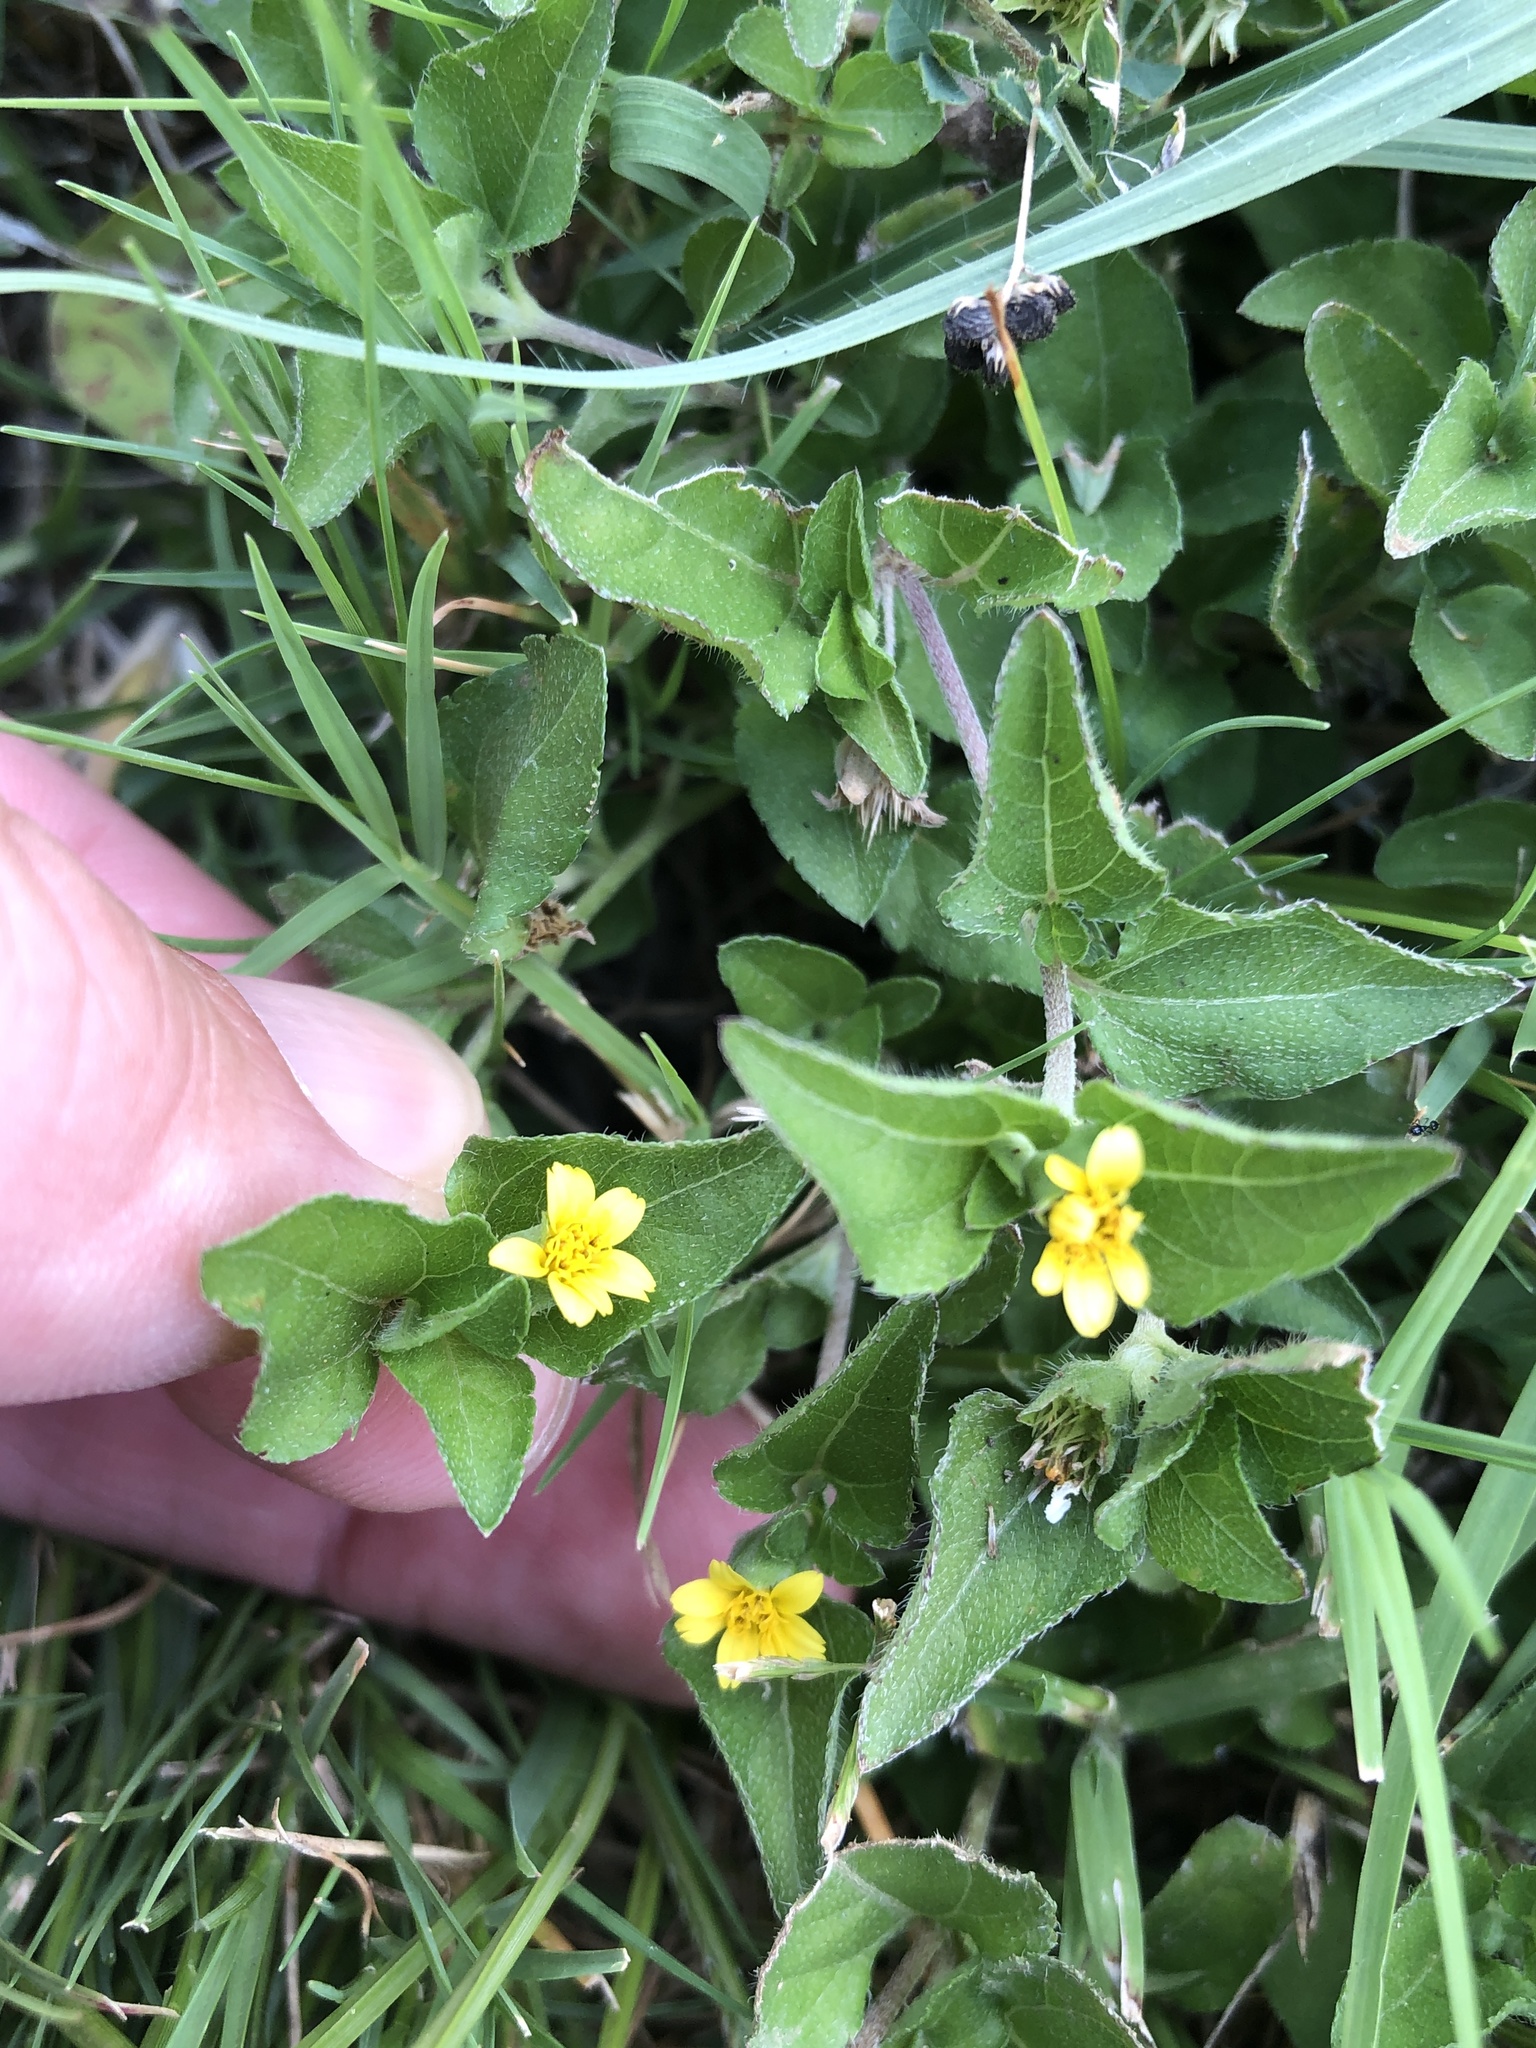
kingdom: Plantae
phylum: Tracheophyta
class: Magnoliopsida
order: Asterales
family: Asteraceae
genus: Calyptocarpus
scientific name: Calyptocarpus vialis
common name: Straggler daisy
